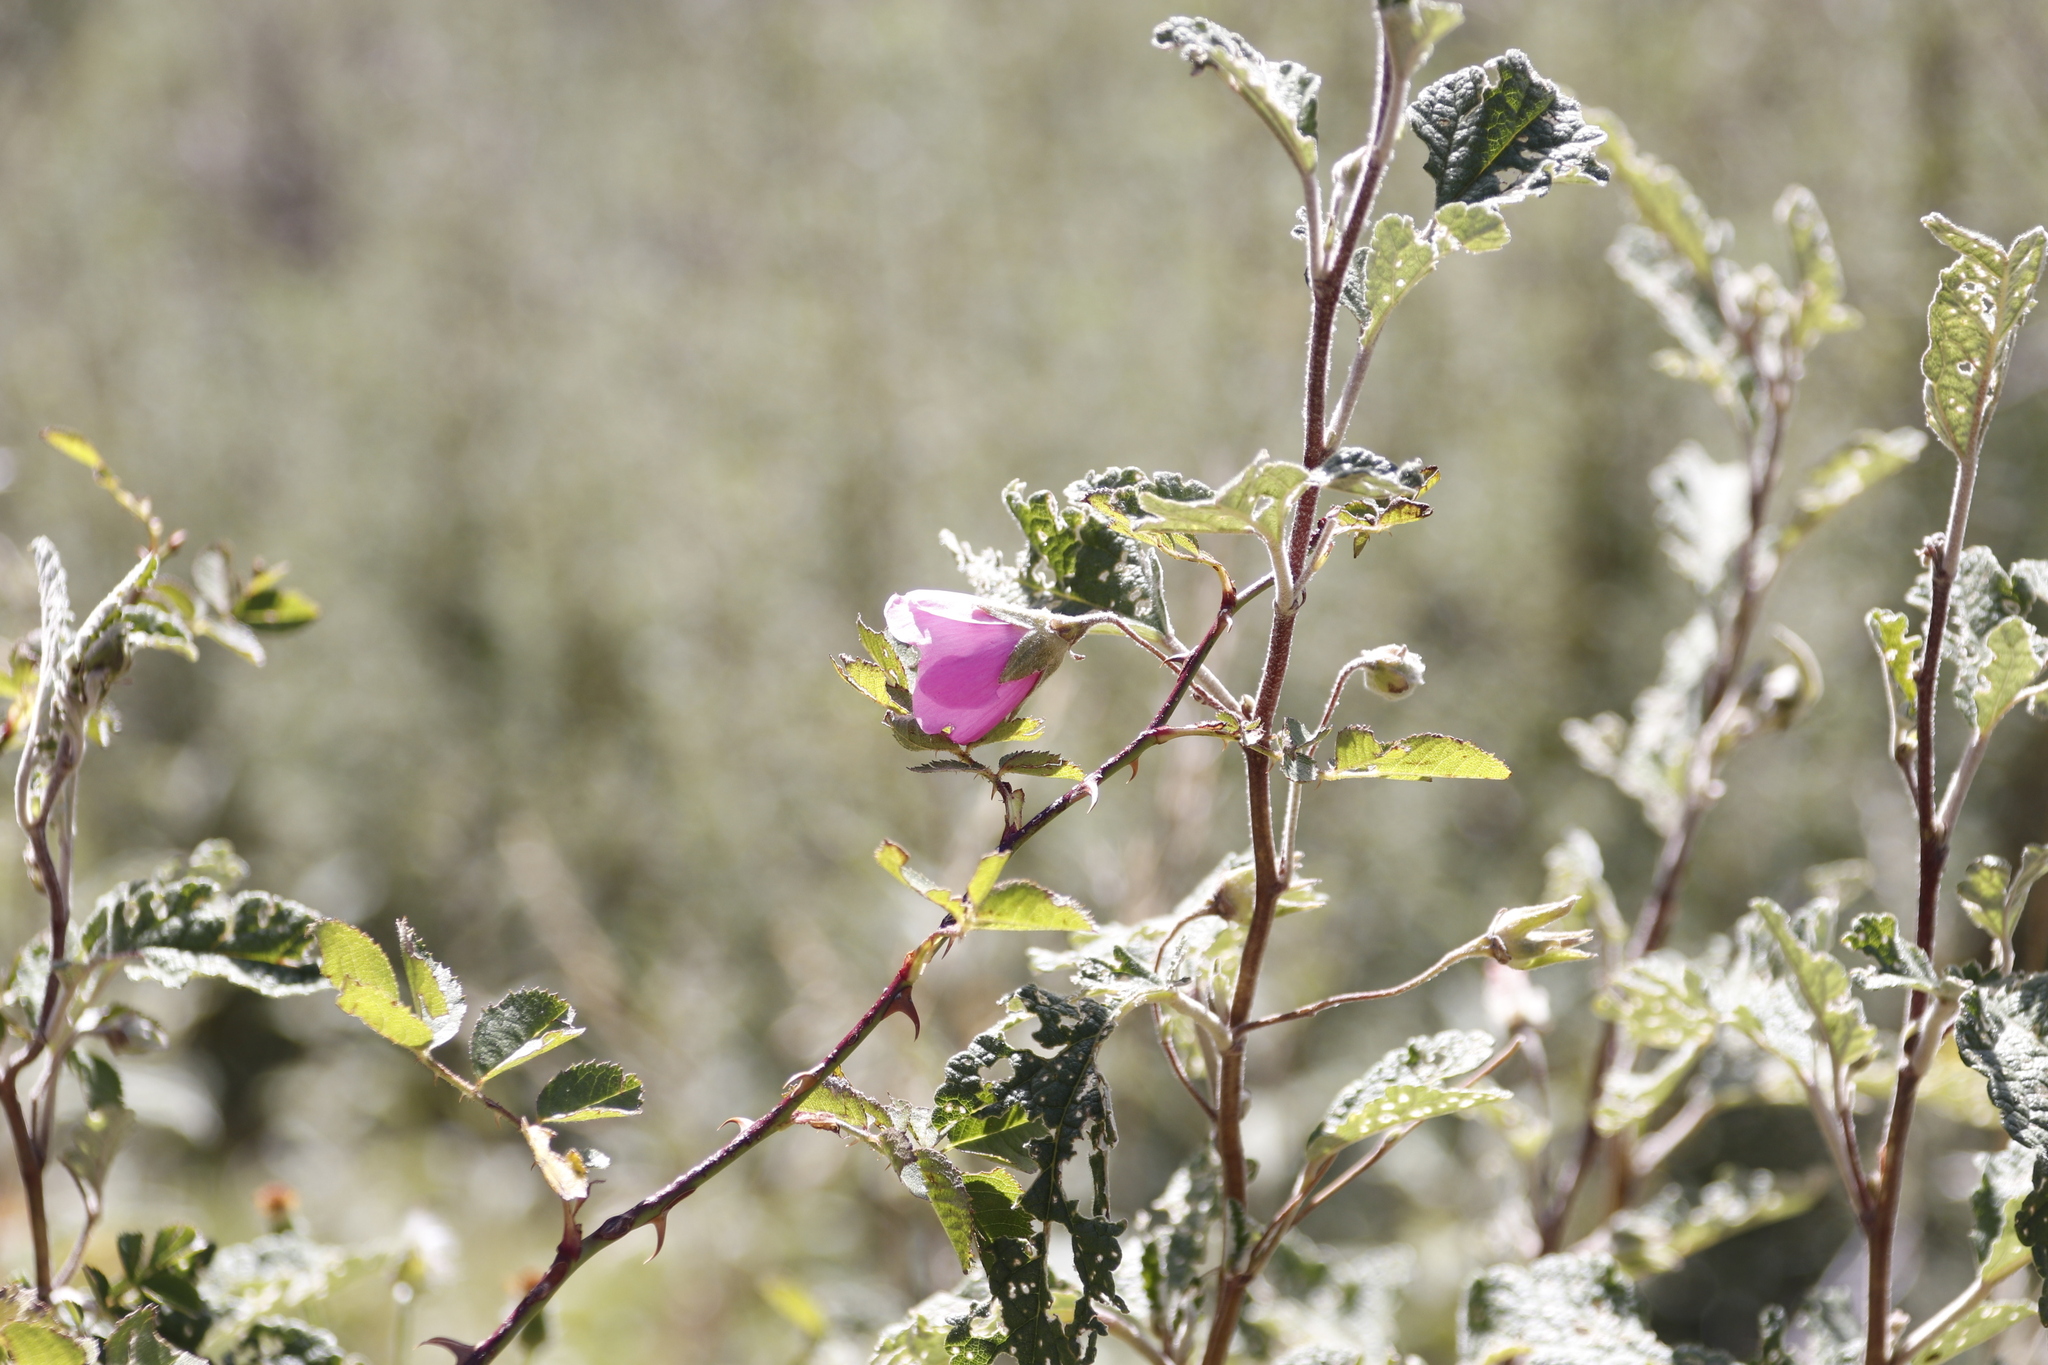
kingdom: Plantae
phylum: Tracheophyta
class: Magnoliopsida
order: Malvales
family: Malvaceae
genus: Anisodontea
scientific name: Anisodontea julii
